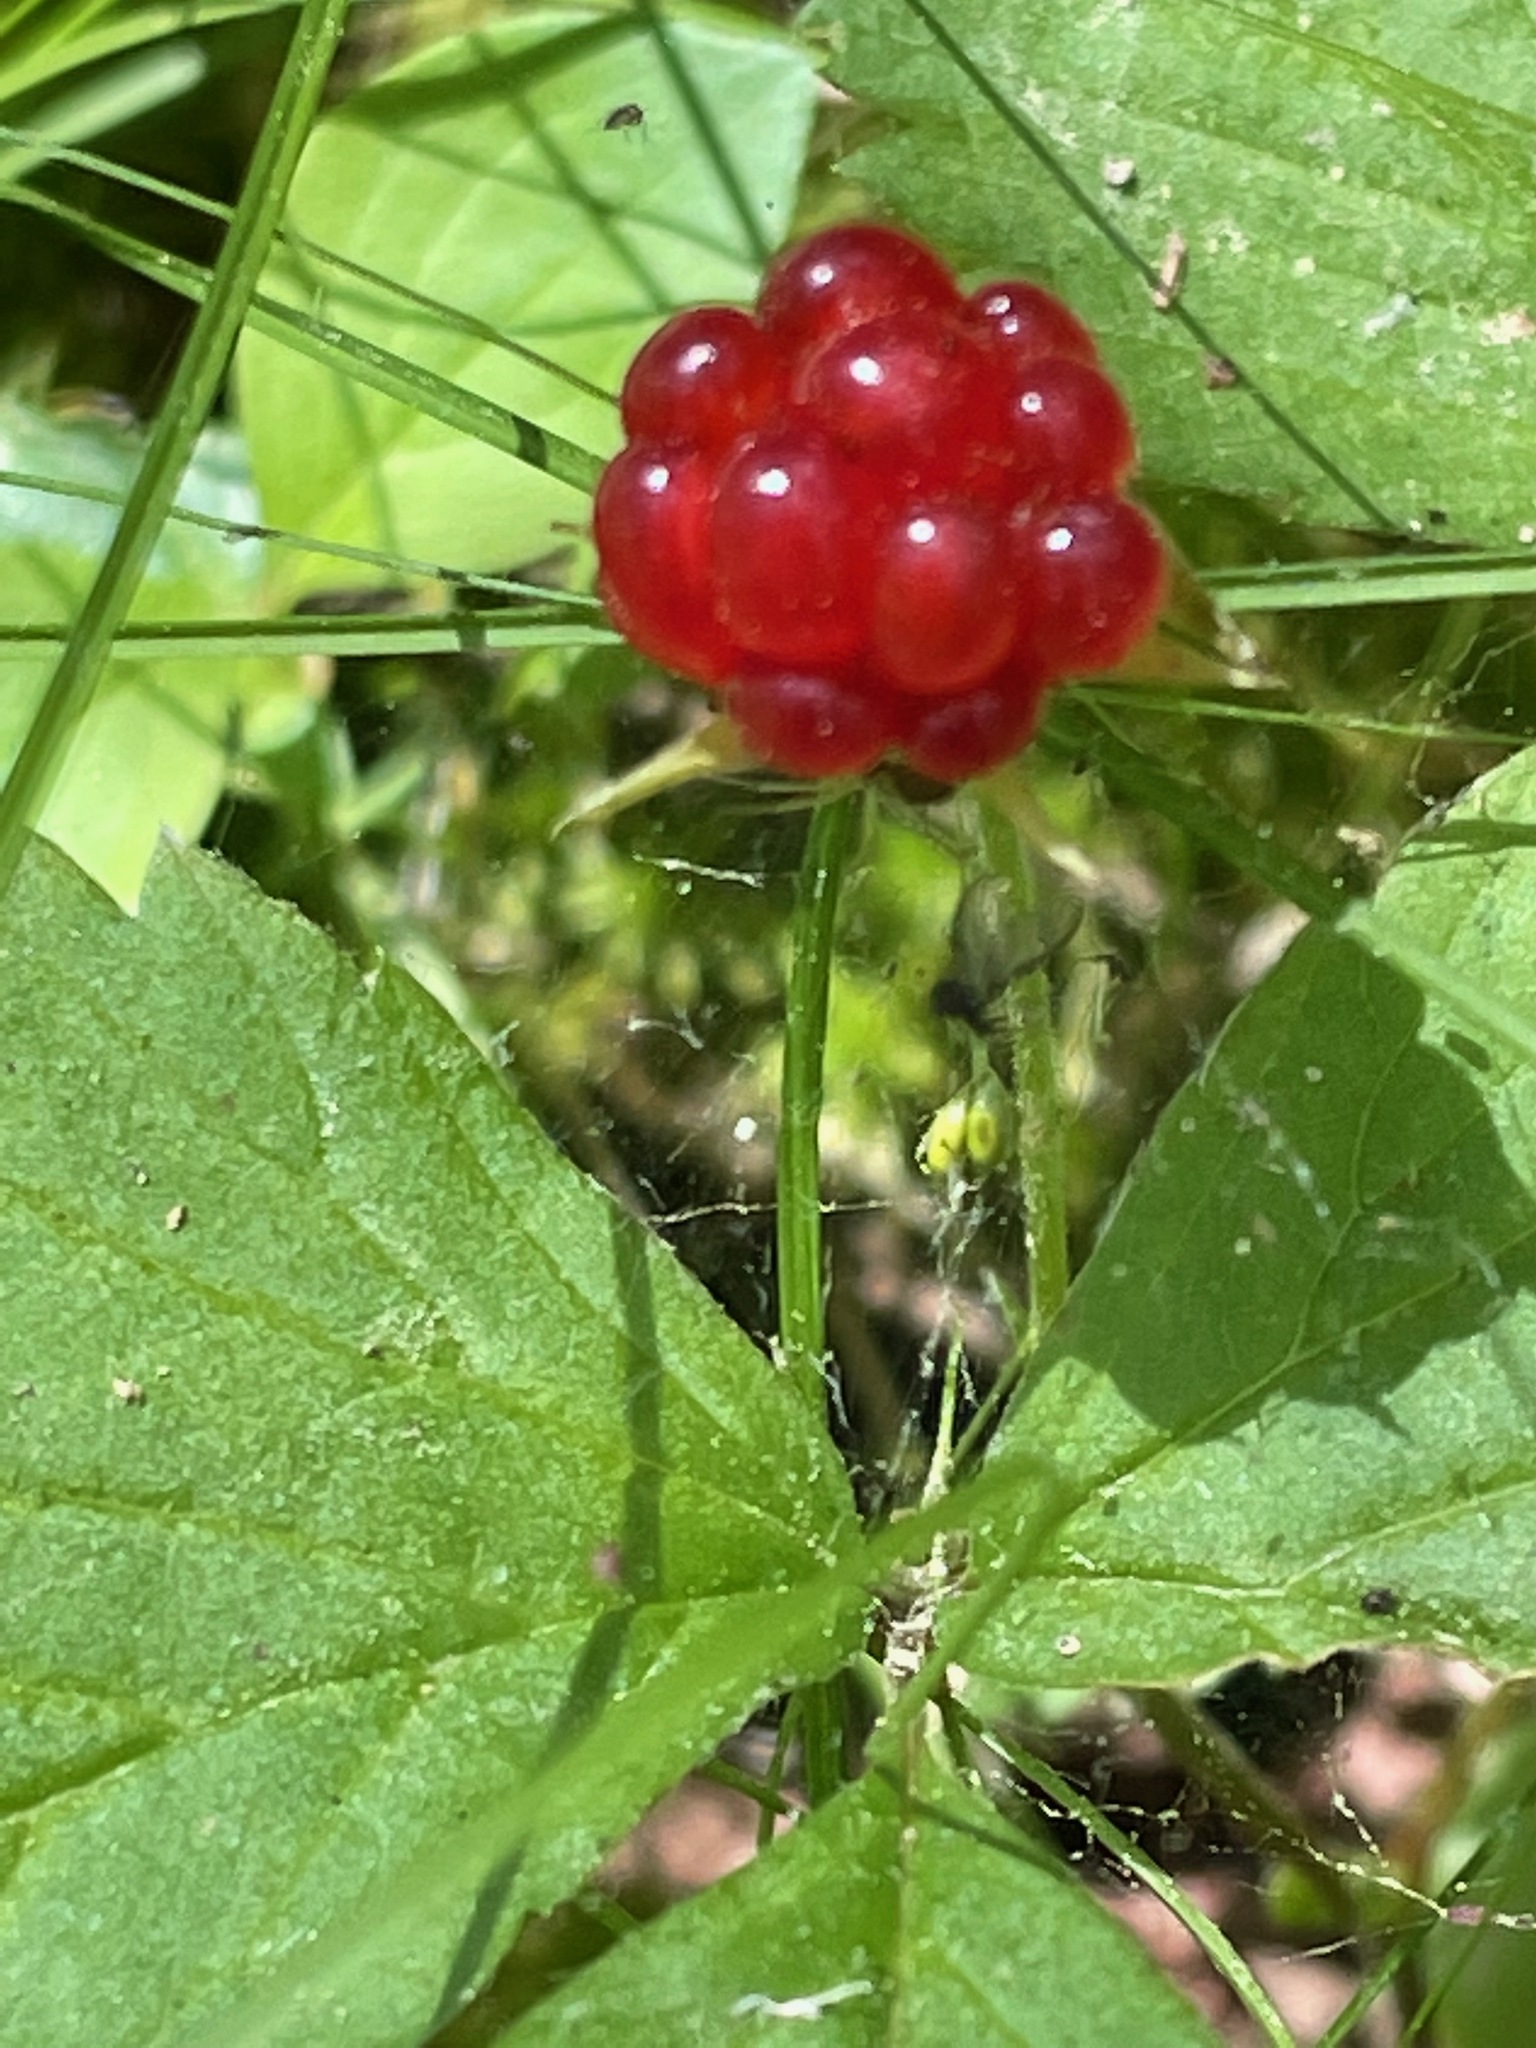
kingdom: Plantae
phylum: Tracheophyta
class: Magnoliopsida
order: Rosales
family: Rosaceae
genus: Rubus
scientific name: Rubus pubescens
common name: Dwarf raspberry
